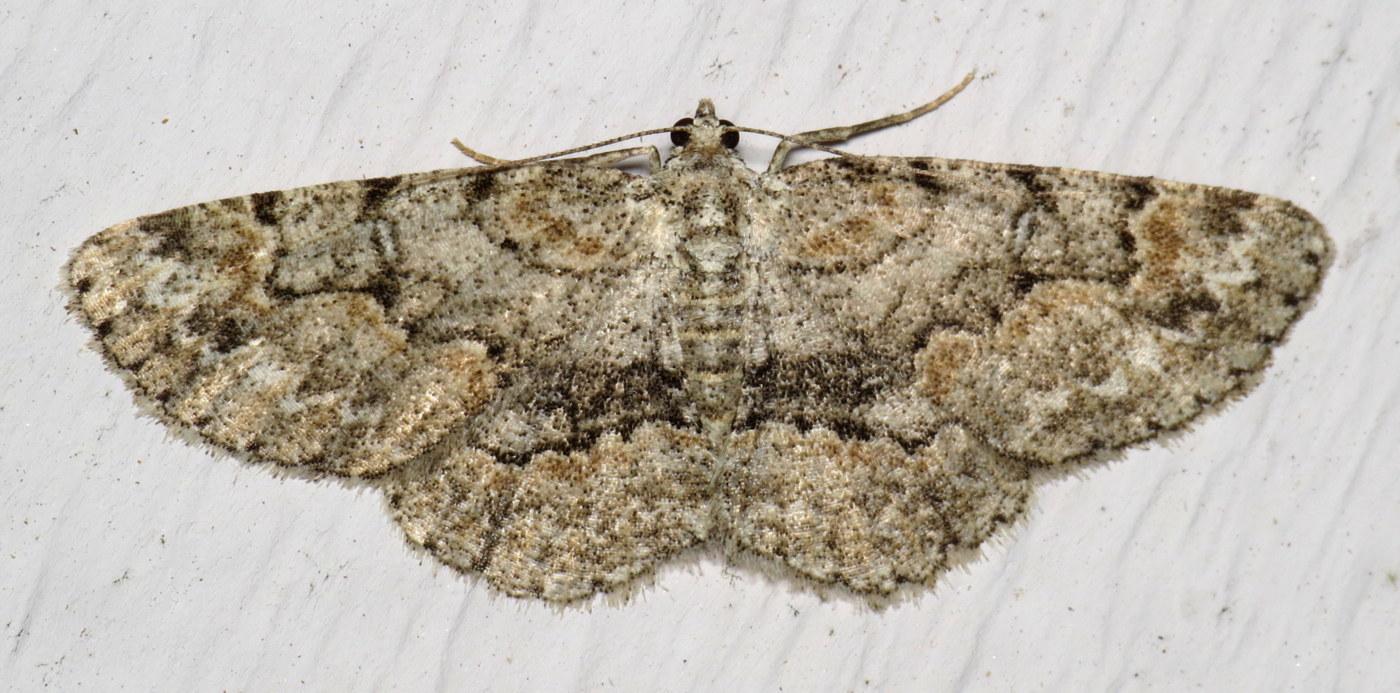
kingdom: Animalia
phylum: Arthropoda
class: Insecta
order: Lepidoptera
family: Geometridae
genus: Iridopsis
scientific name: Iridopsis ephyraria
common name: Pale-winged gray
